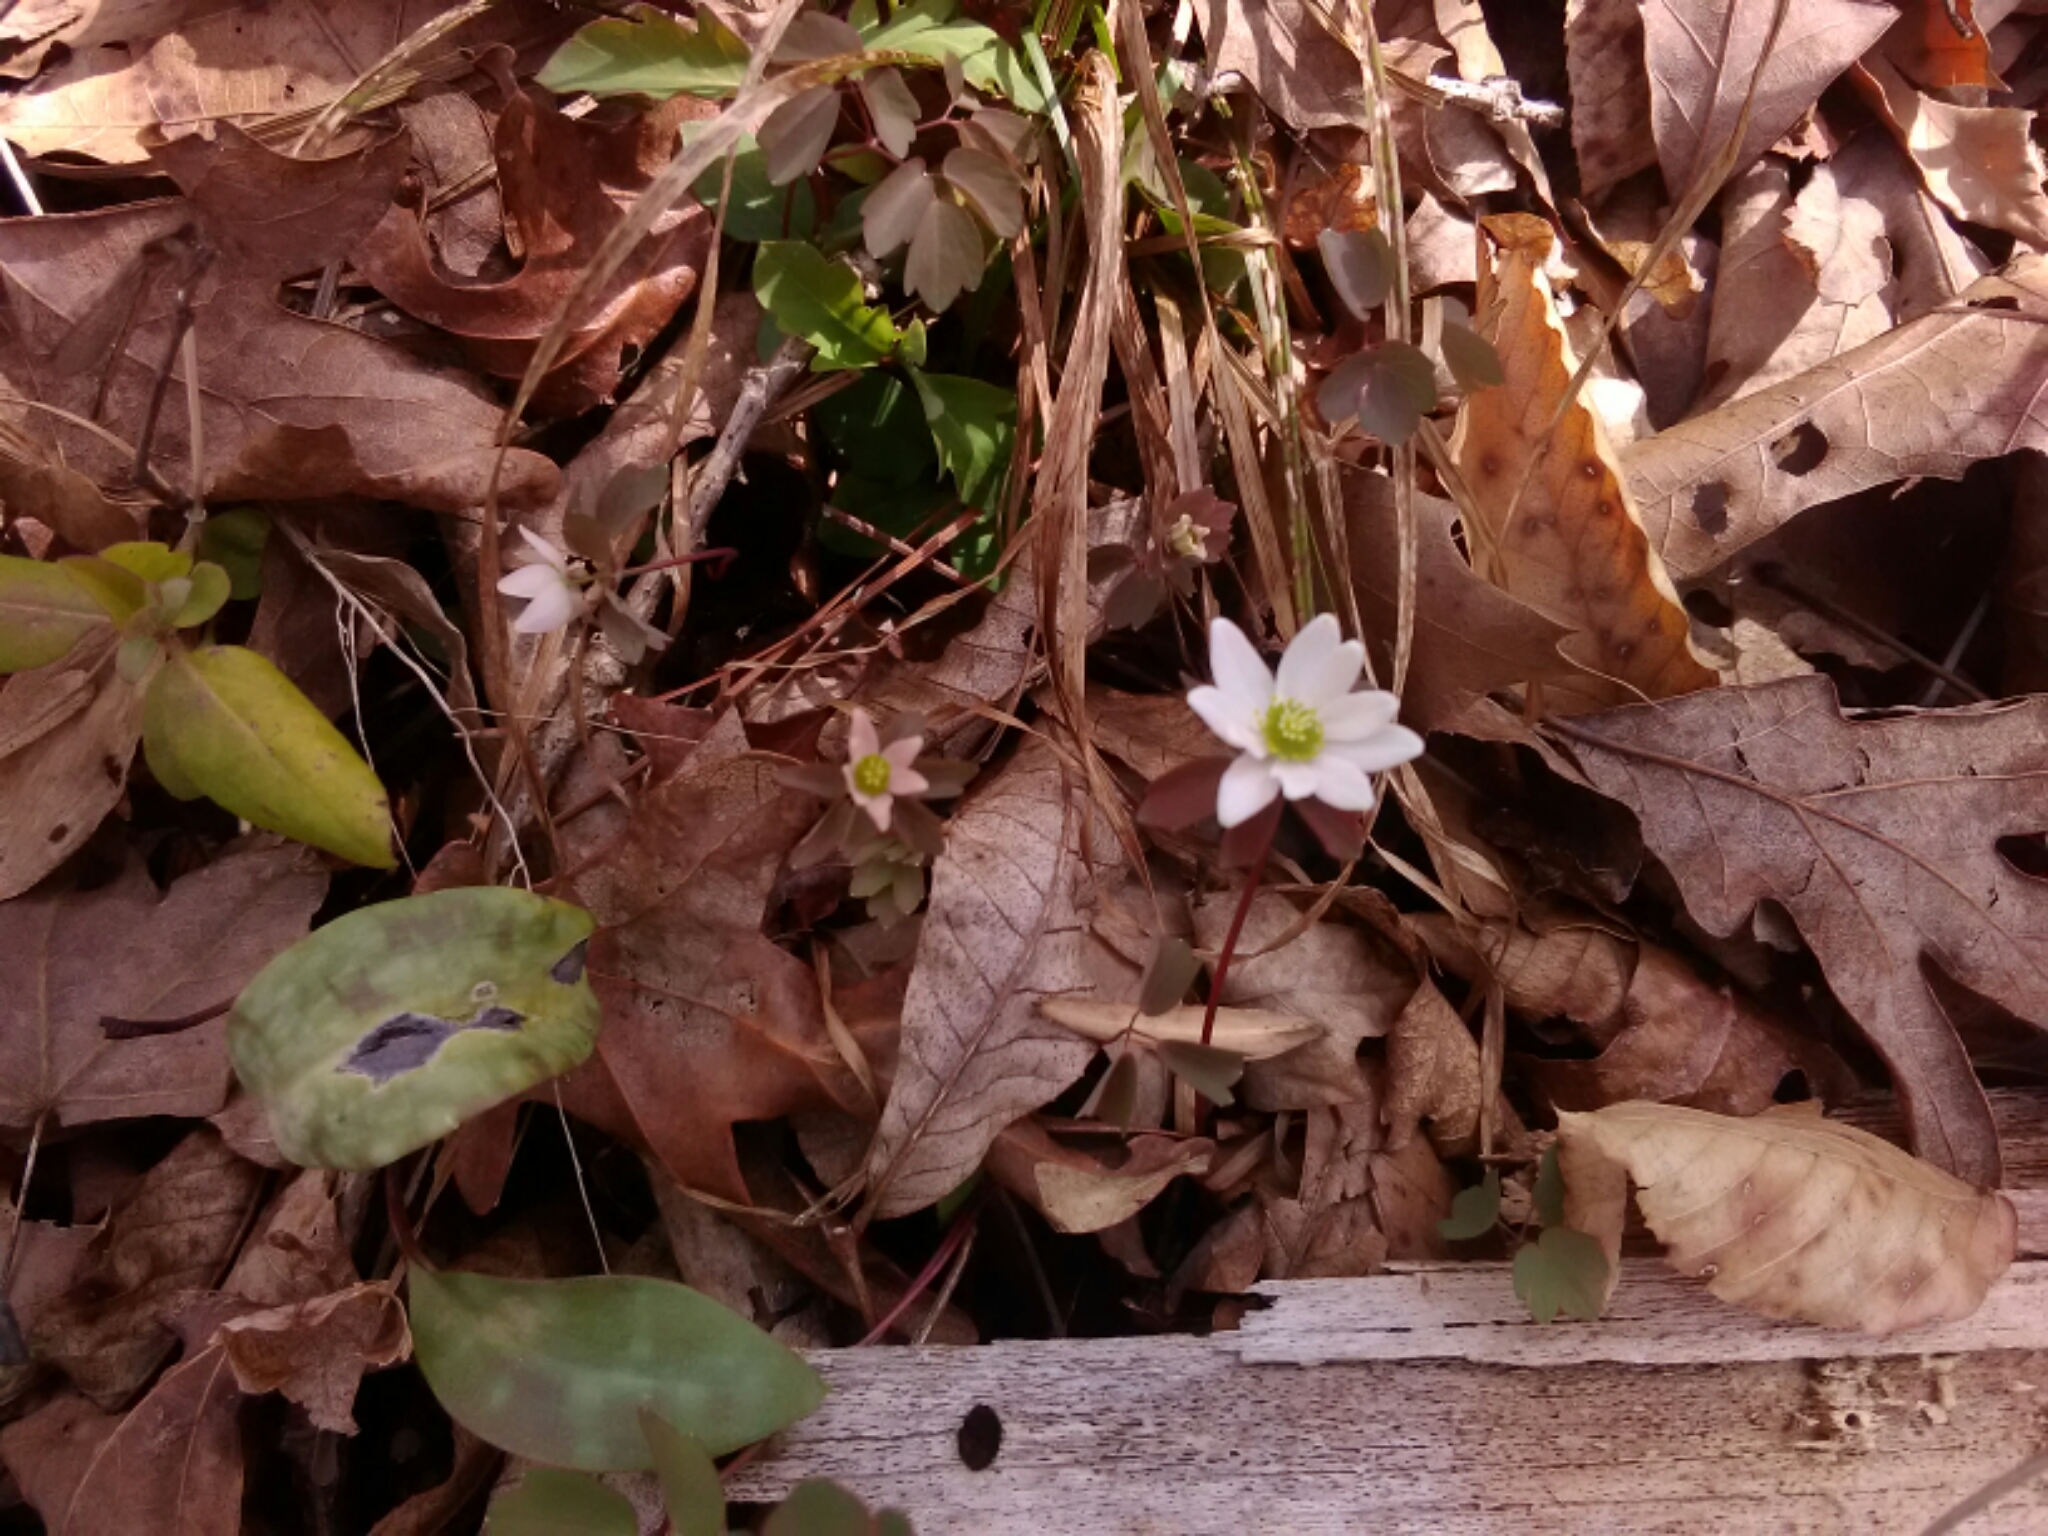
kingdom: Plantae
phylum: Tracheophyta
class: Magnoliopsida
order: Ranunculales
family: Ranunculaceae
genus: Thalictrum
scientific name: Thalictrum thalictroides
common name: Rue-anemone
